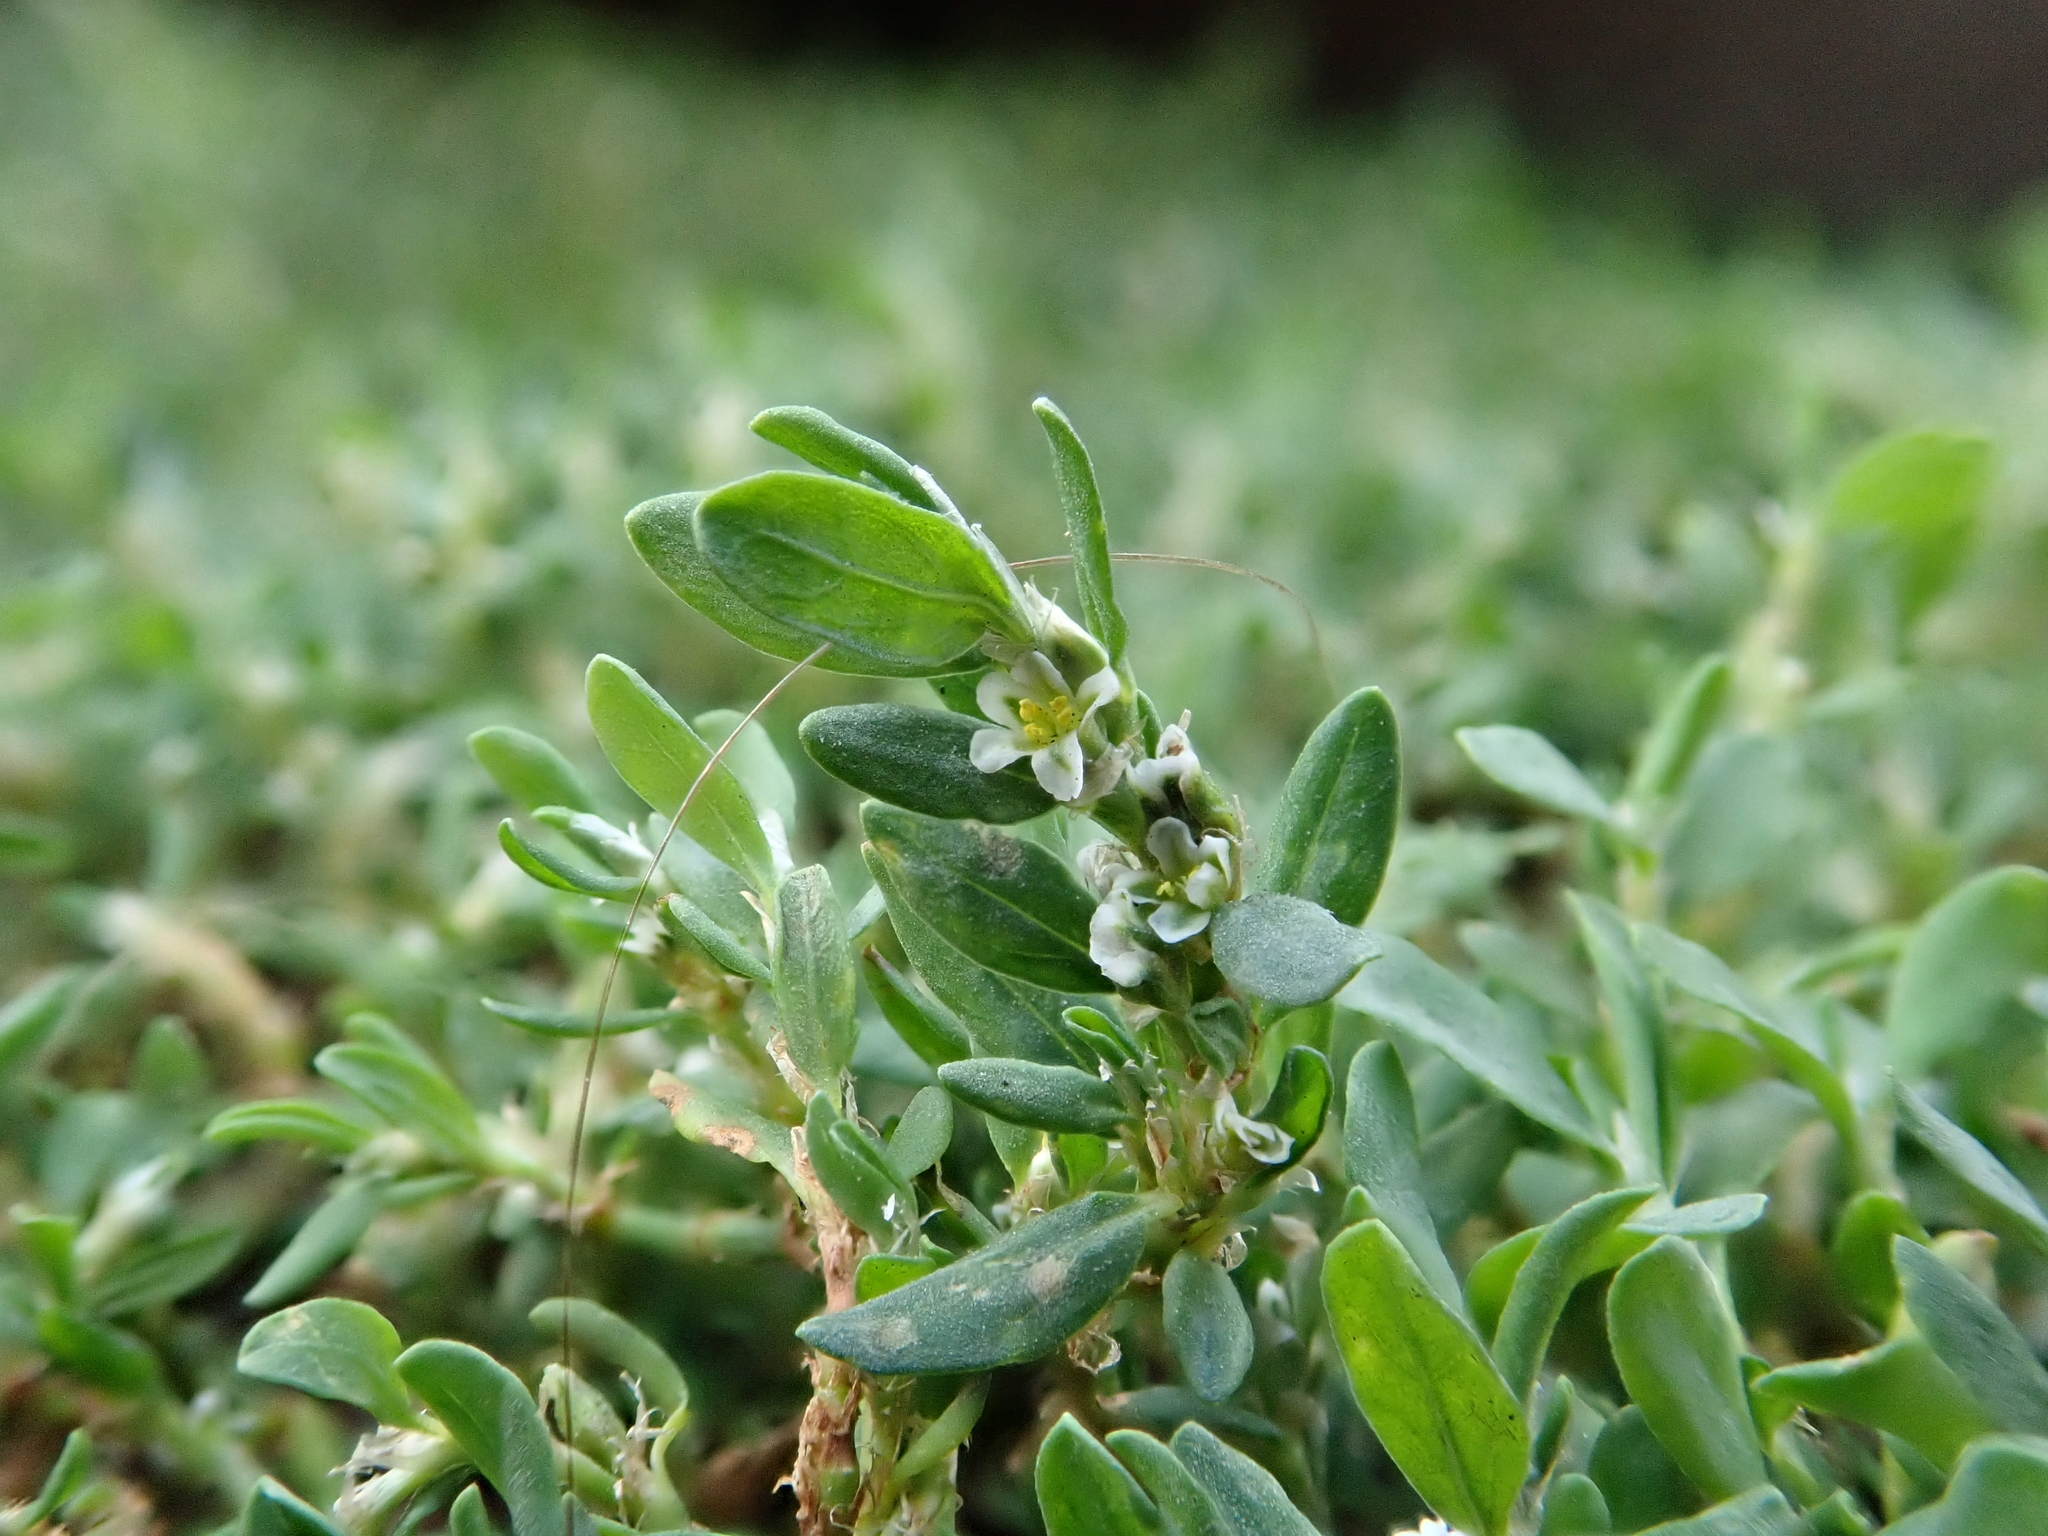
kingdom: Plantae
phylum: Tracheophyta
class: Magnoliopsida
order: Caryophyllales
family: Polygonaceae
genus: Polygonum
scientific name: Polygonum aviculare
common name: Prostrate knotweed
